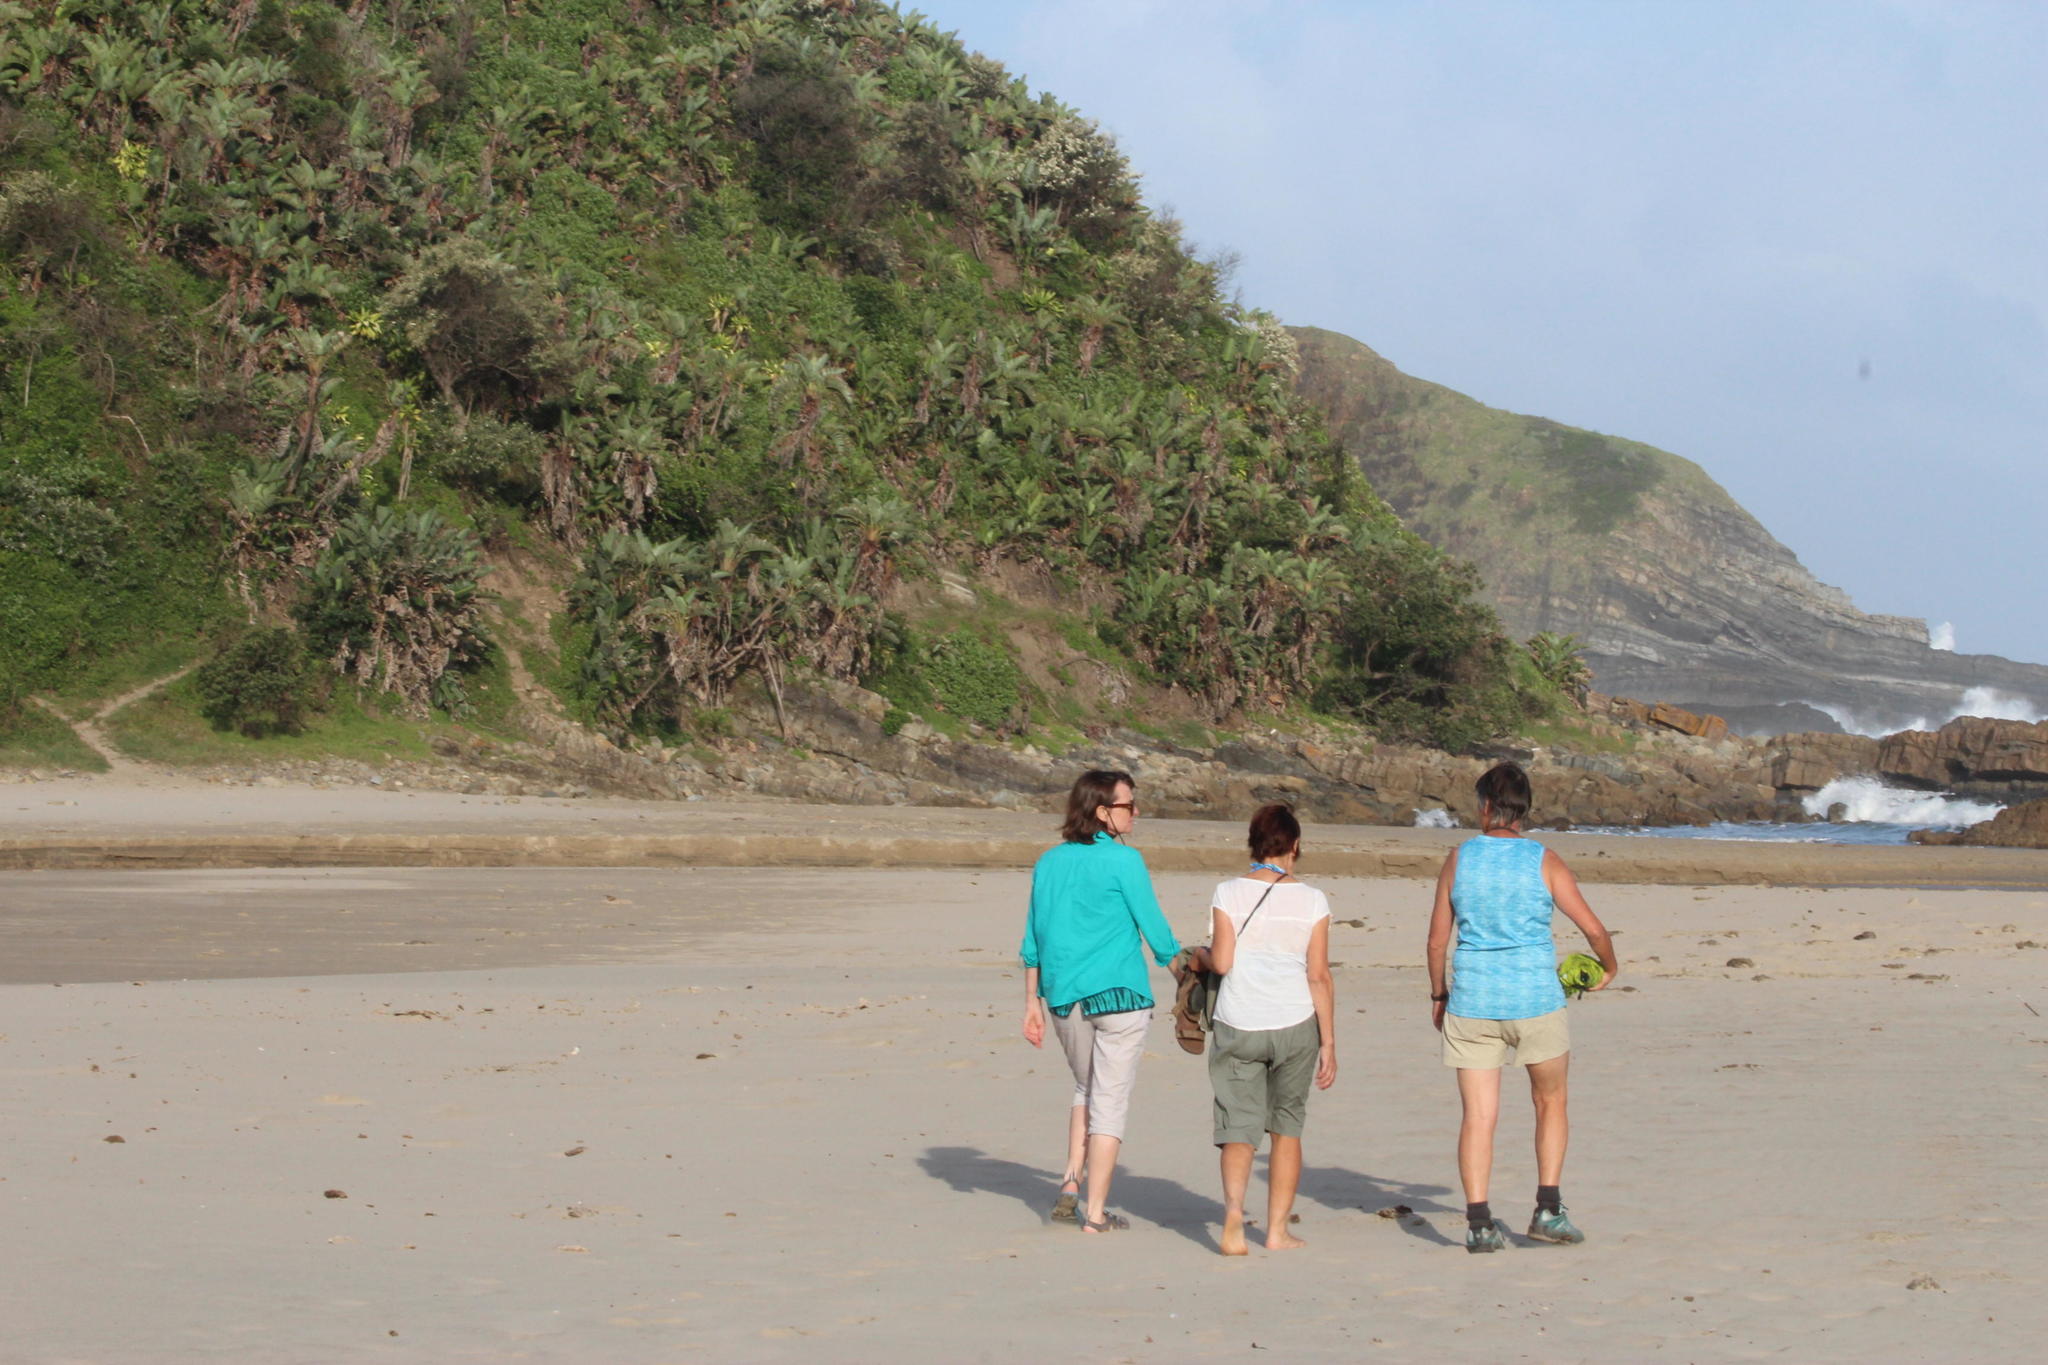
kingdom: Plantae
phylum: Tracheophyta
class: Liliopsida
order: Zingiberales
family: Strelitziaceae
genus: Strelitzia
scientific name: Strelitzia nicolai
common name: Bird-of-paradise tree
